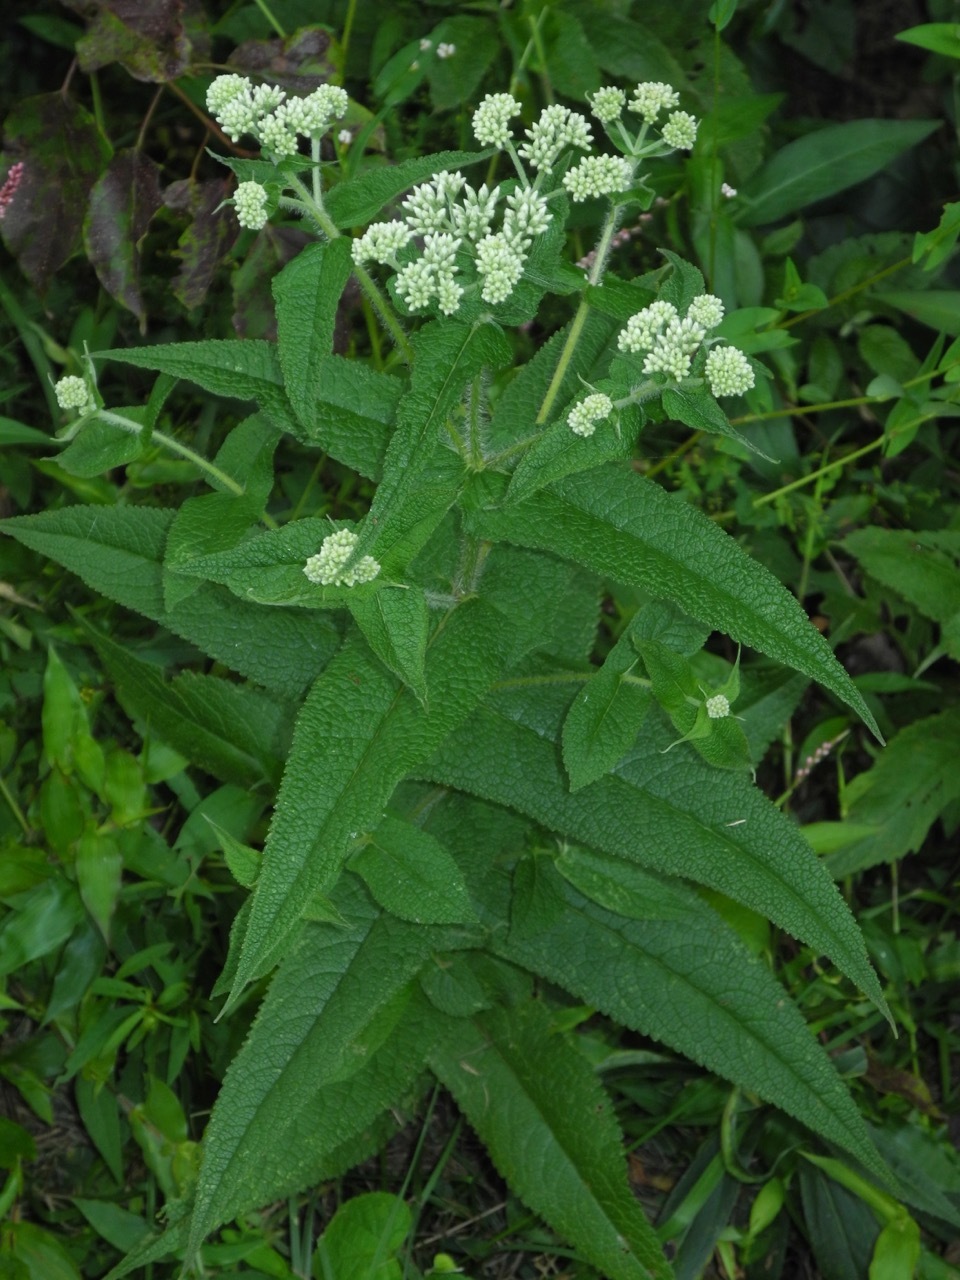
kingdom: Plantae
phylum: Tracheophyta
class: Magnoliopsida
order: Asterales
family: Asteraceae
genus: Eupatorium
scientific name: Eupatorium perfoliatum
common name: Boneset
